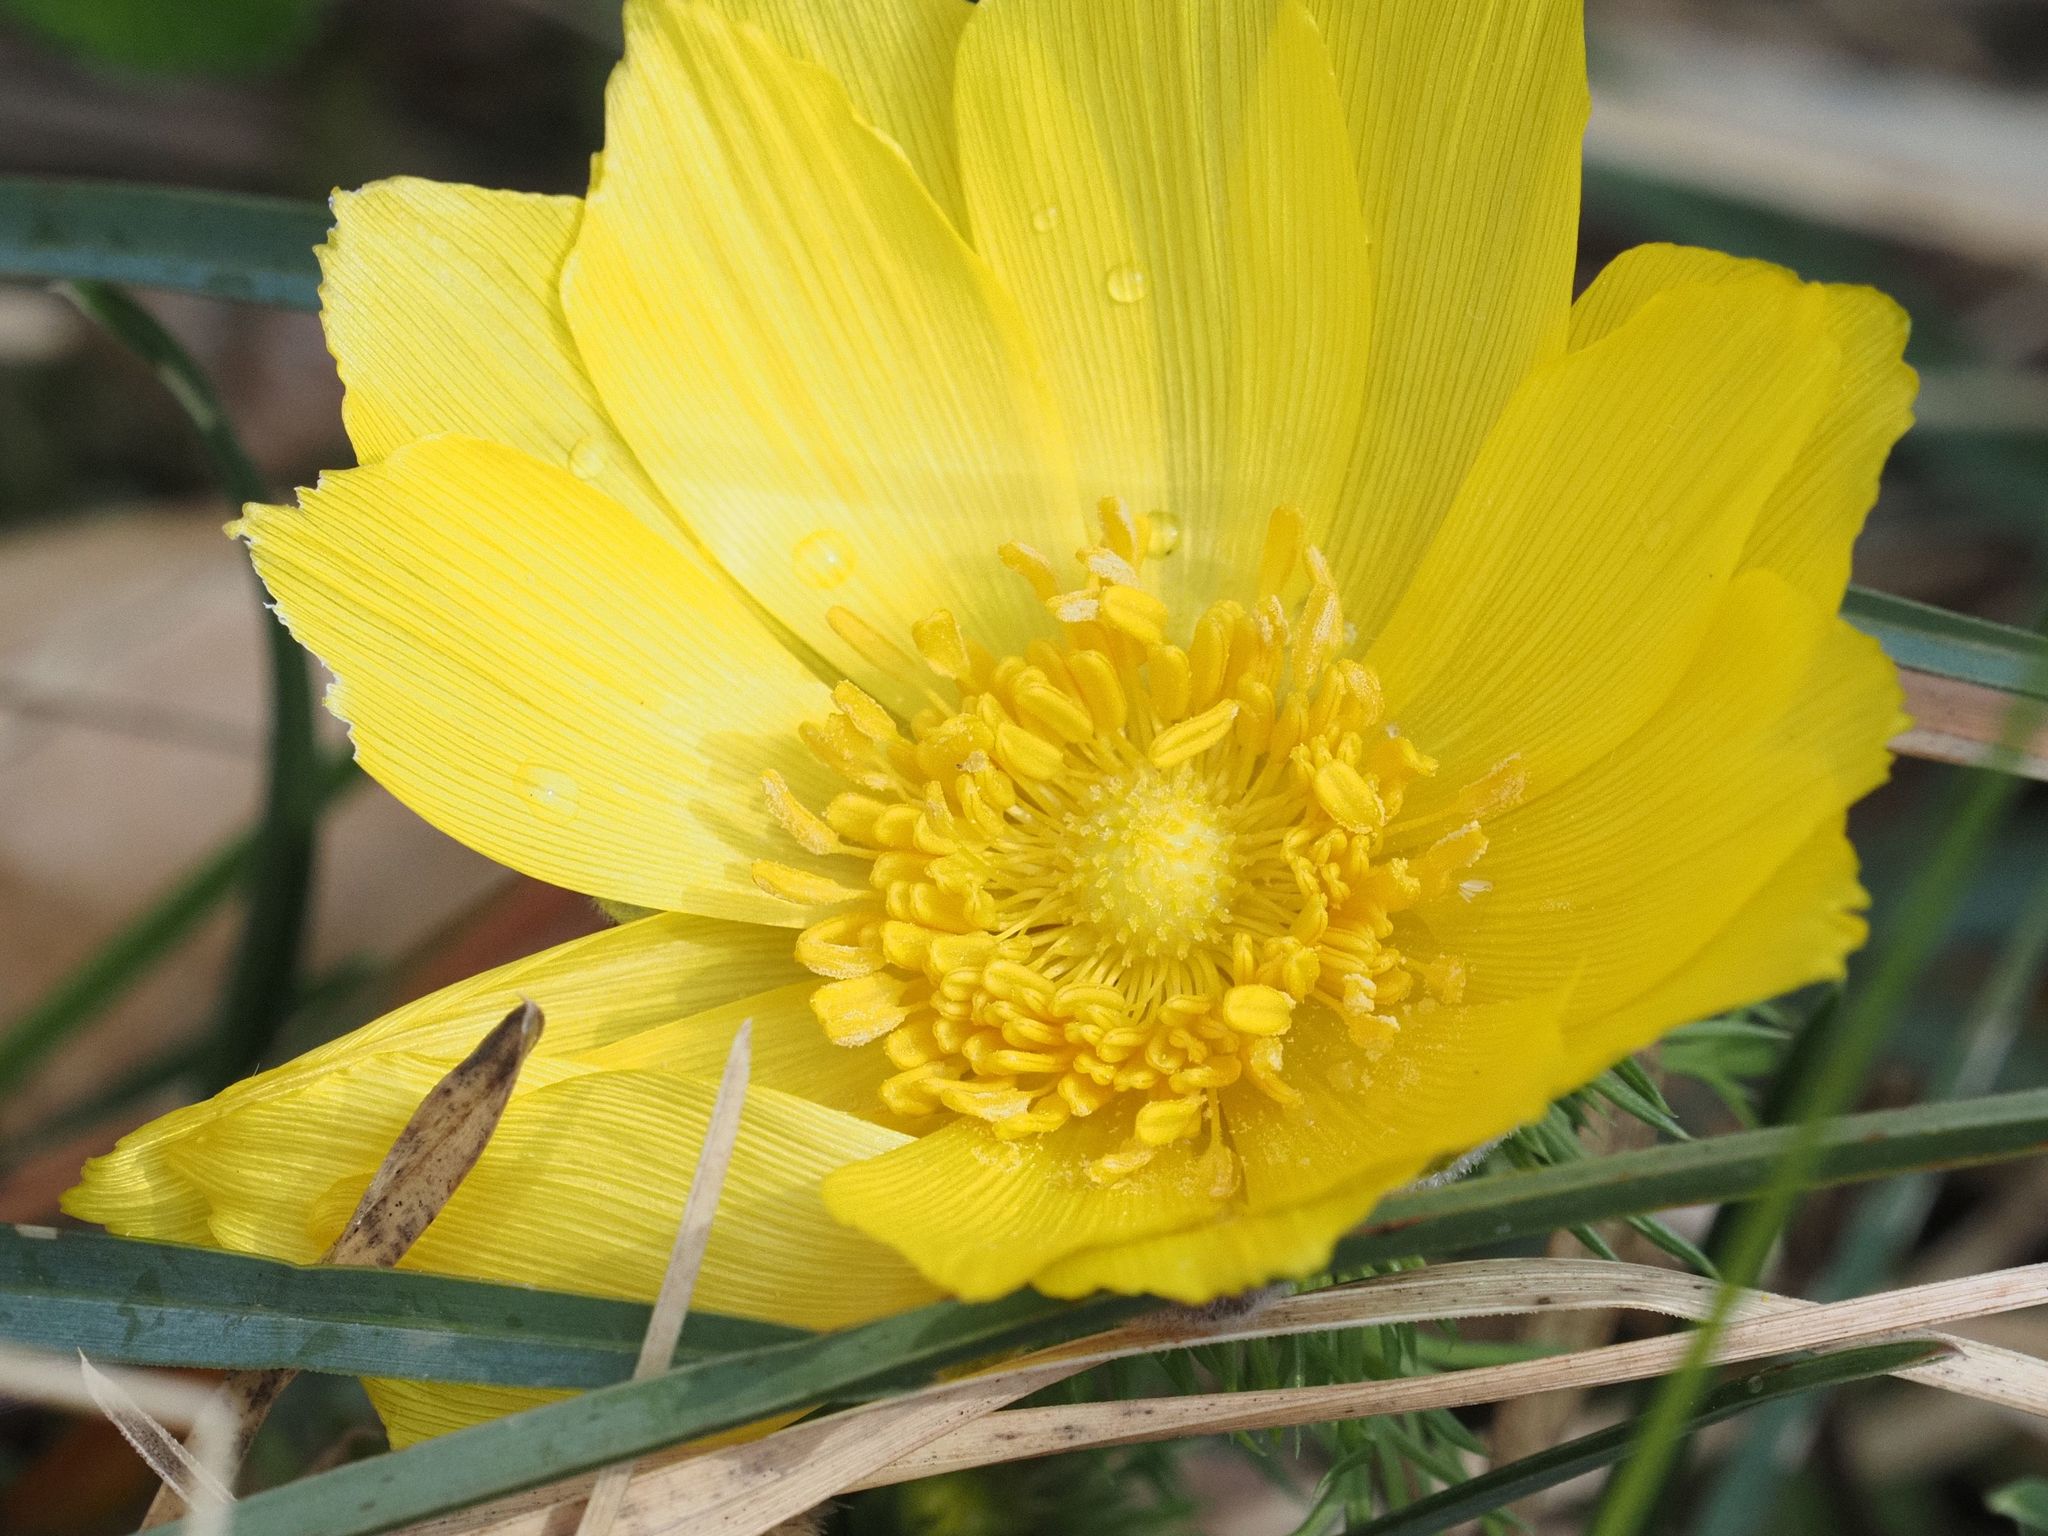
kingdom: Plantae
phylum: Tracheophyta
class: Magnoliopsida
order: Ranunculales
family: Ranunculaceae
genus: Adonis
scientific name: Adonis vernalis
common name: Yellow pheasants-eye
